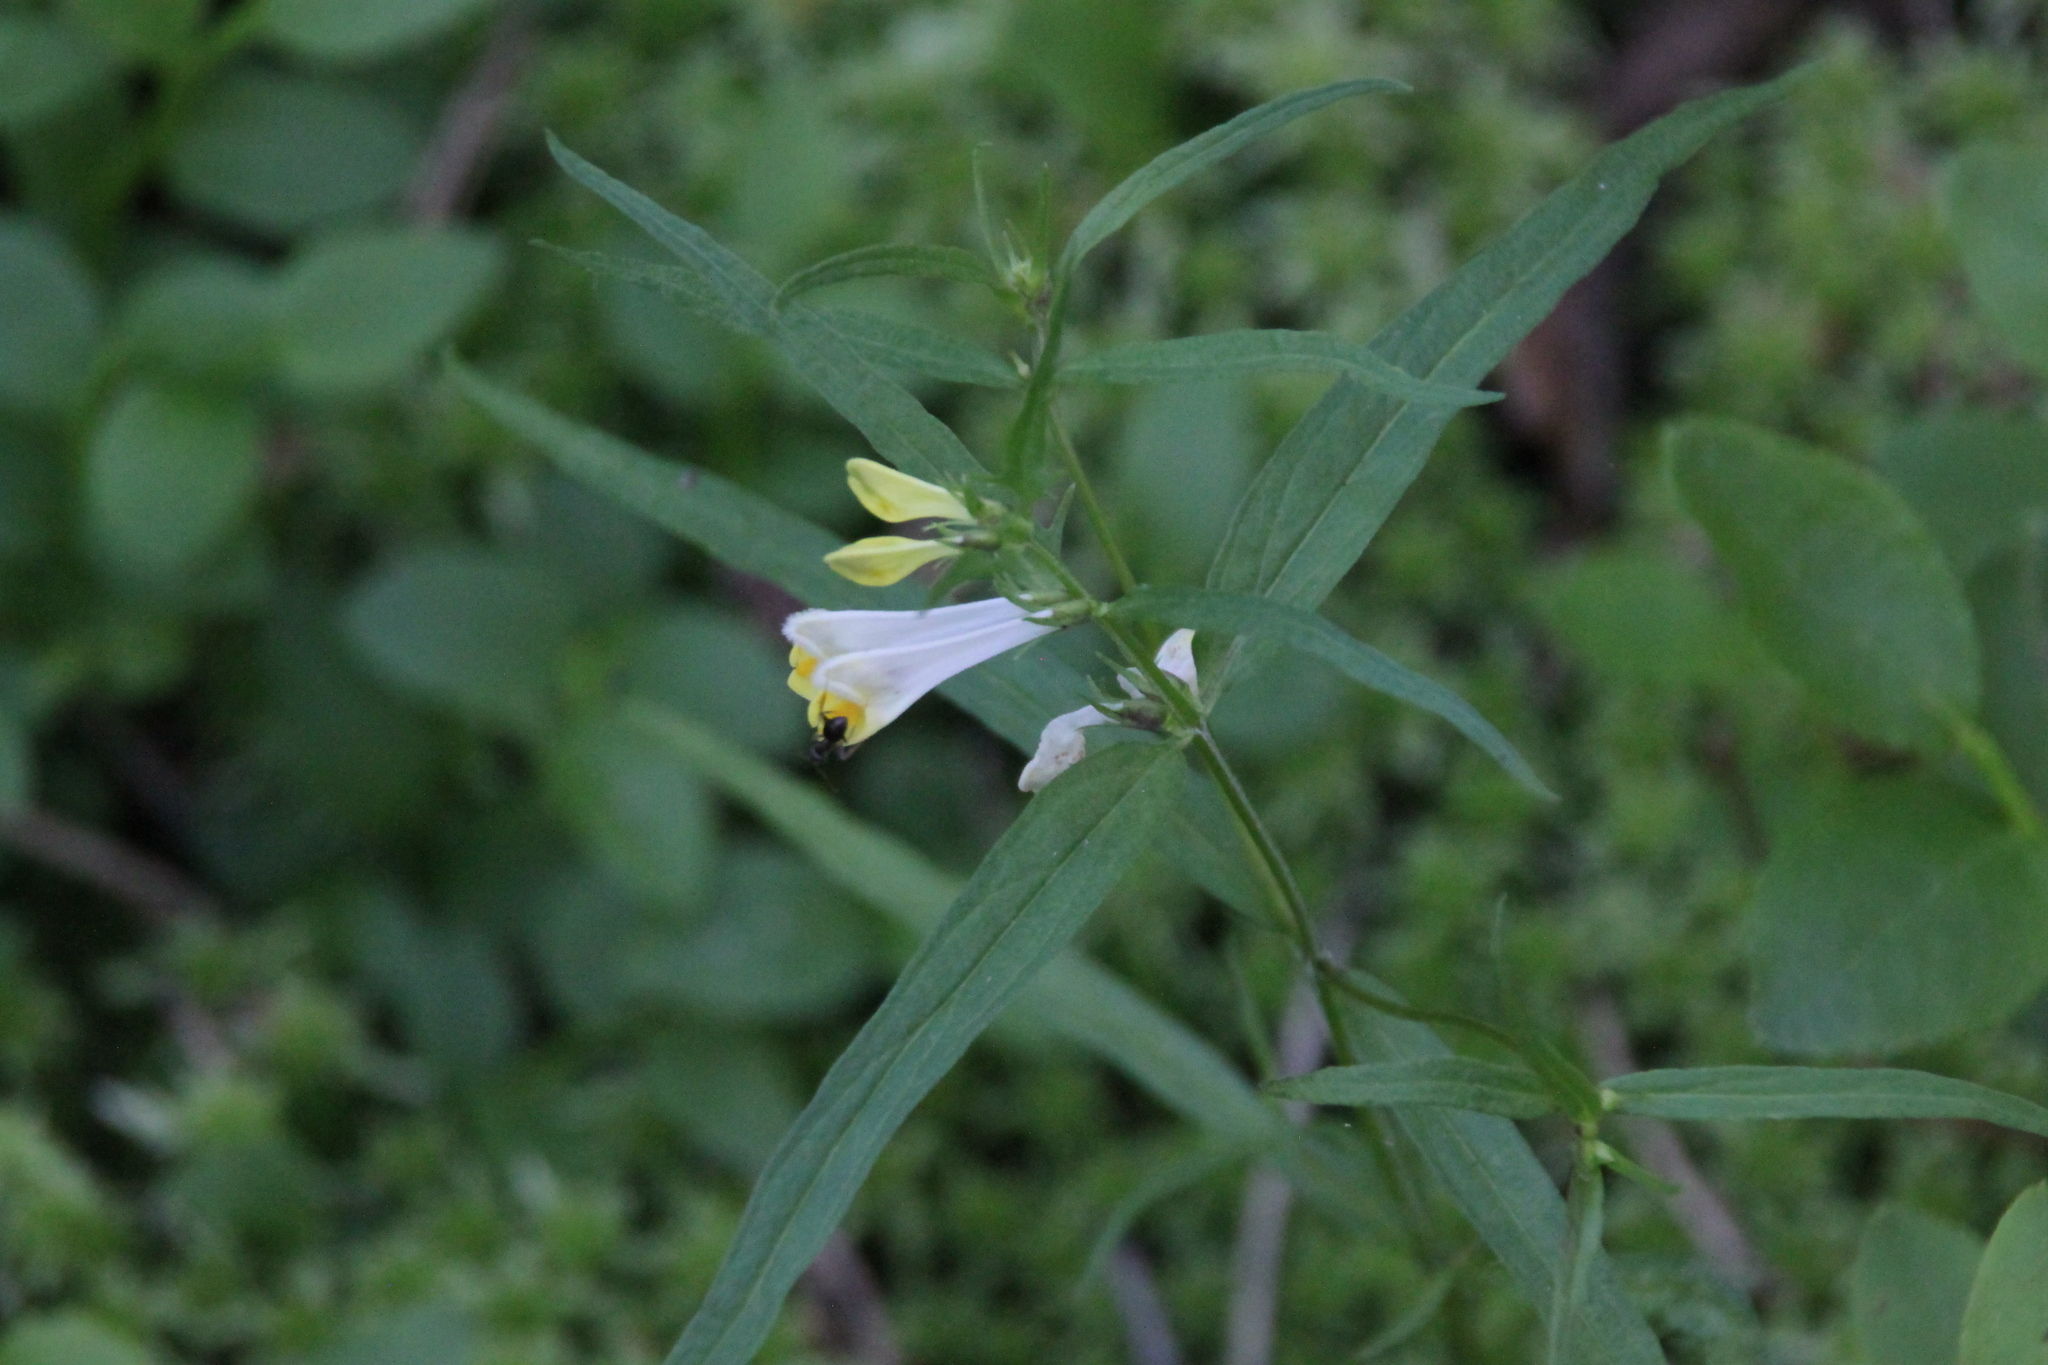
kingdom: Plantae
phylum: Tracheophyta
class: Magnoliopsida
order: Lamiales
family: Orobanchaceae
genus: Melampyrum
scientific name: Melampyrum pratense
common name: Common cow-wheat
